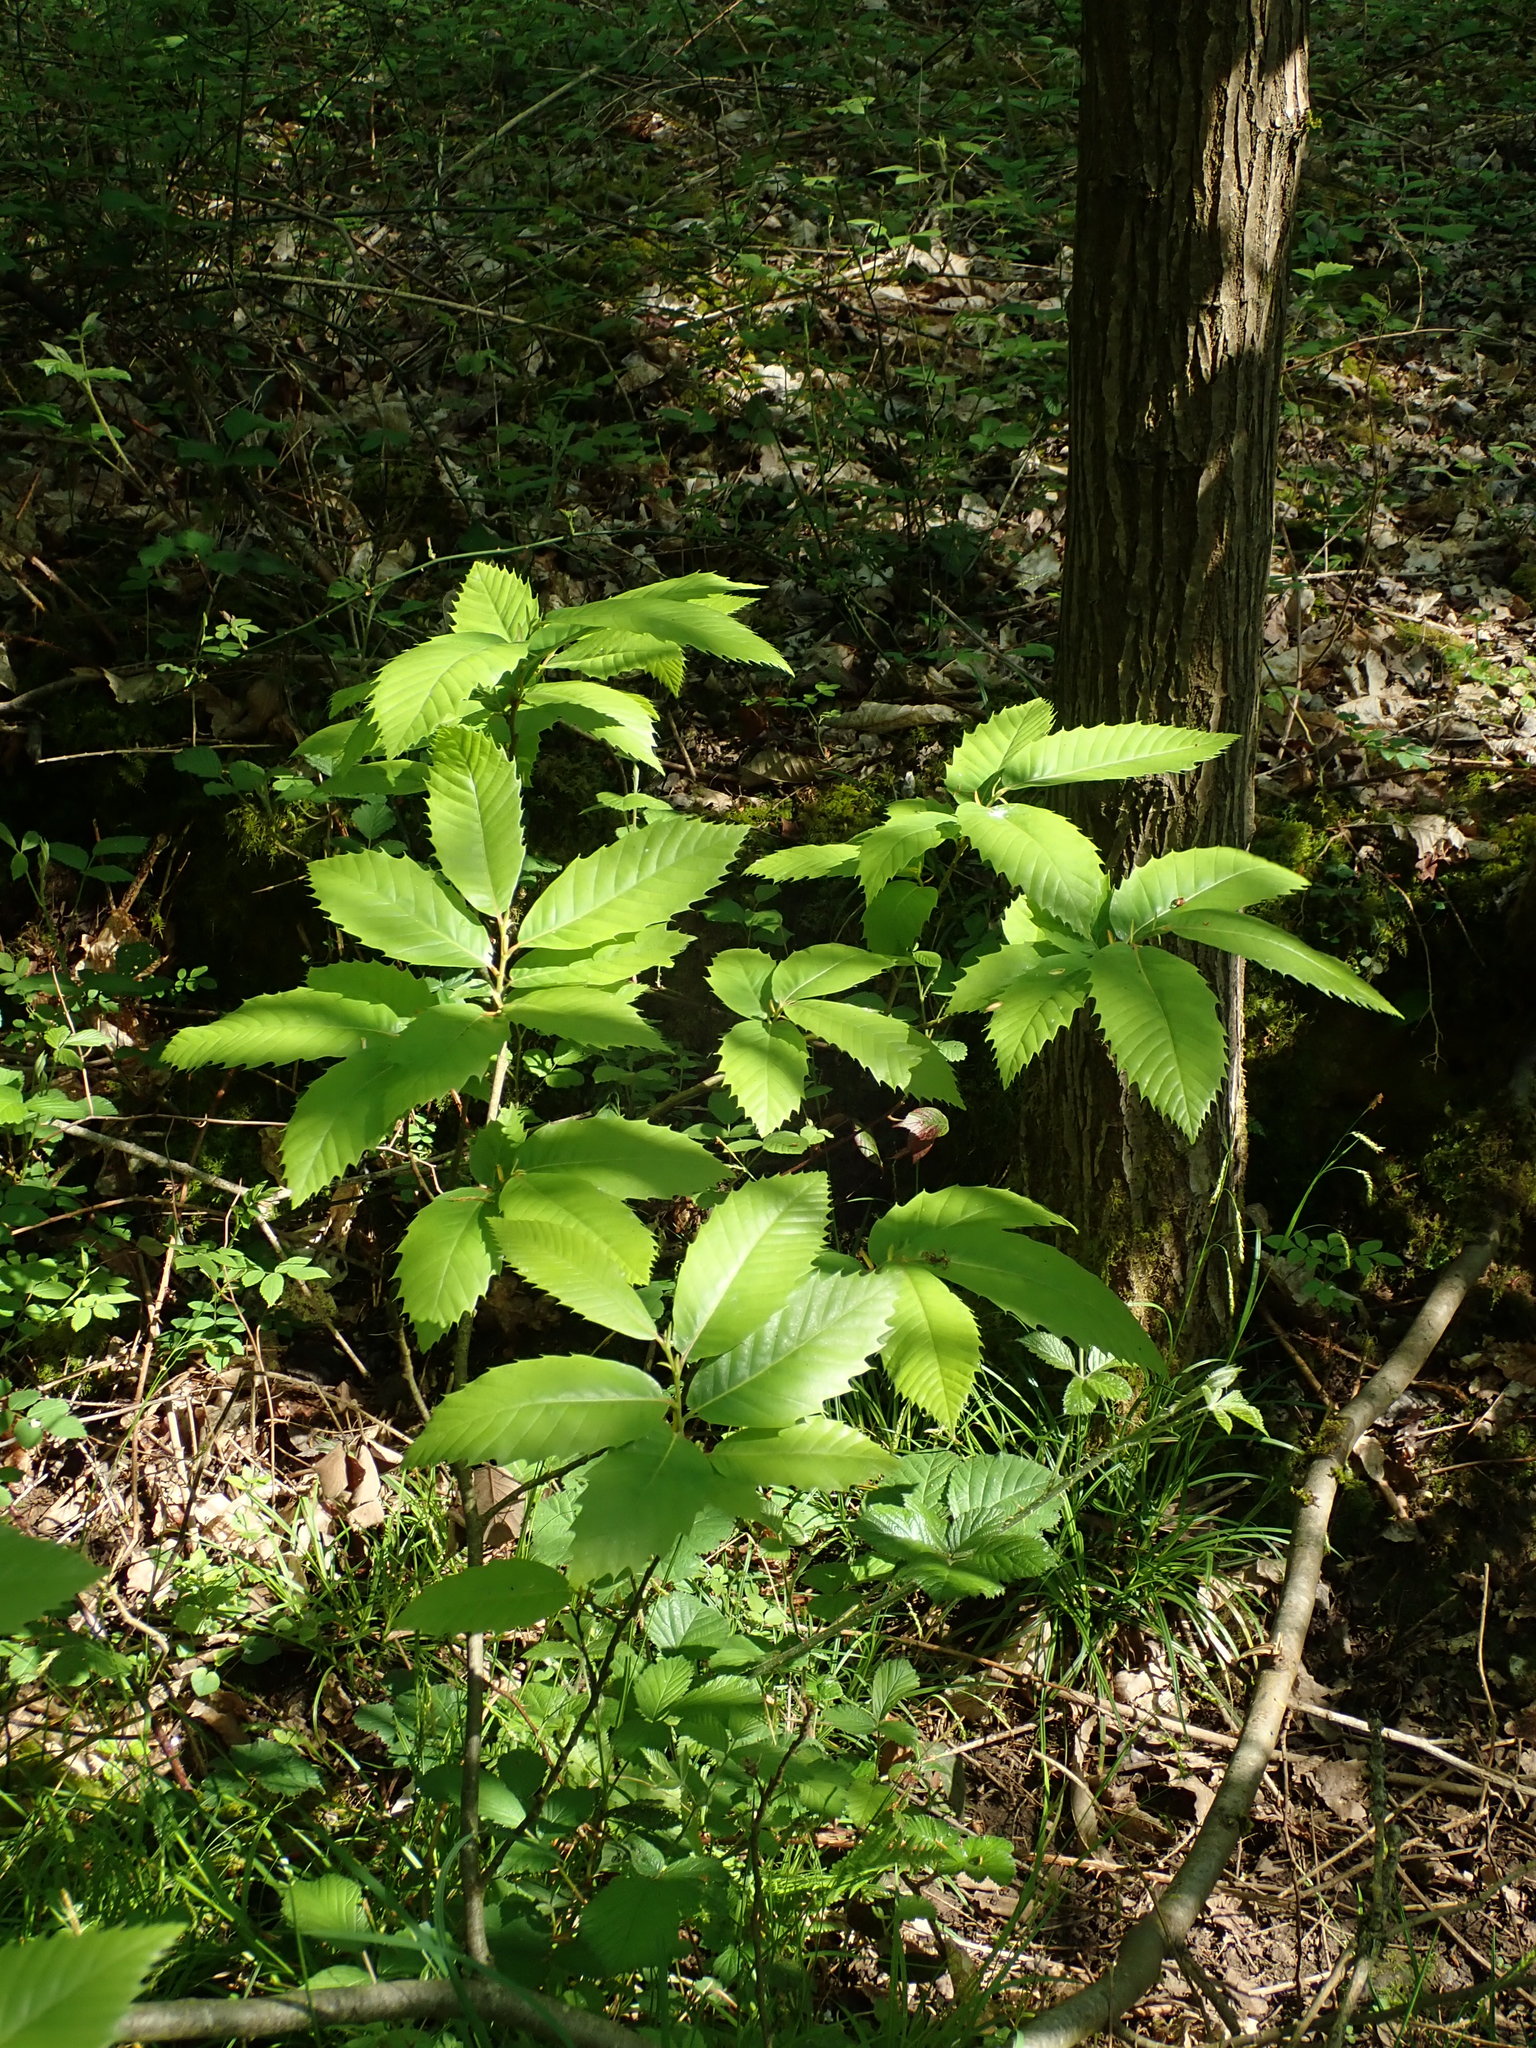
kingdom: Plantae
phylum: Tracheophyta
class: Magnoliopsida
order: Fagales
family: Fagaceae
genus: Castanea
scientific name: Castanea sativa
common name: Sweet chestnut
